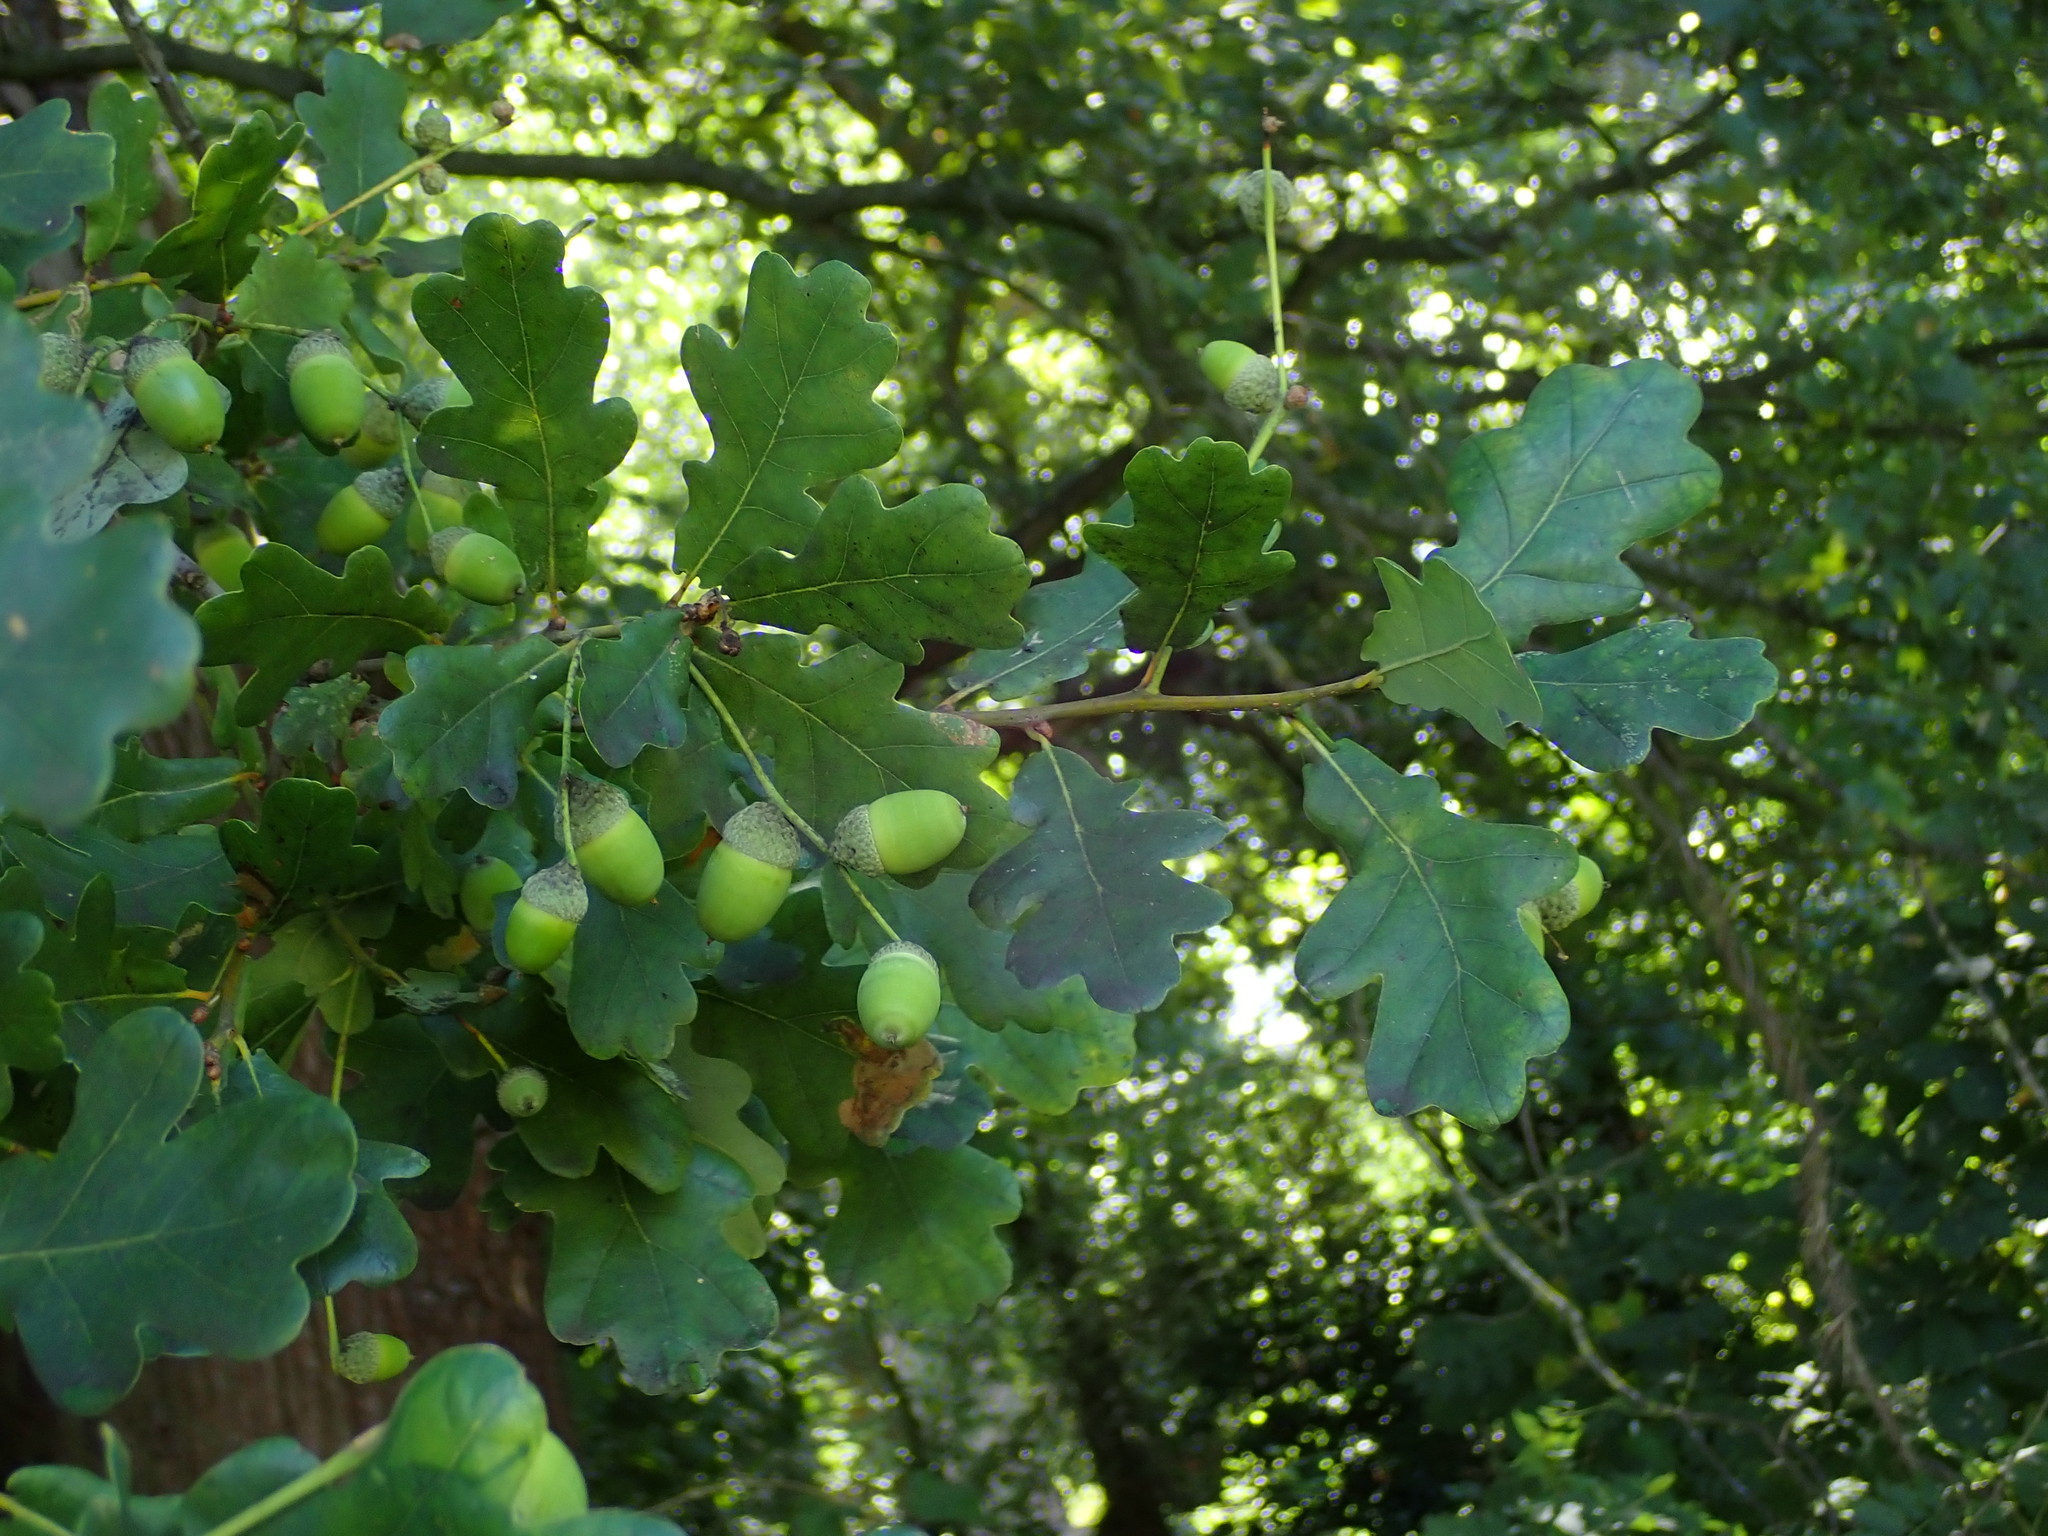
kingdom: Plantae
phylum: Tracheophyta
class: Magnoliopsida
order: Fagales
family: Fagaceae
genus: Quercus
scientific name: Quercus robur
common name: Pedunculate oak
